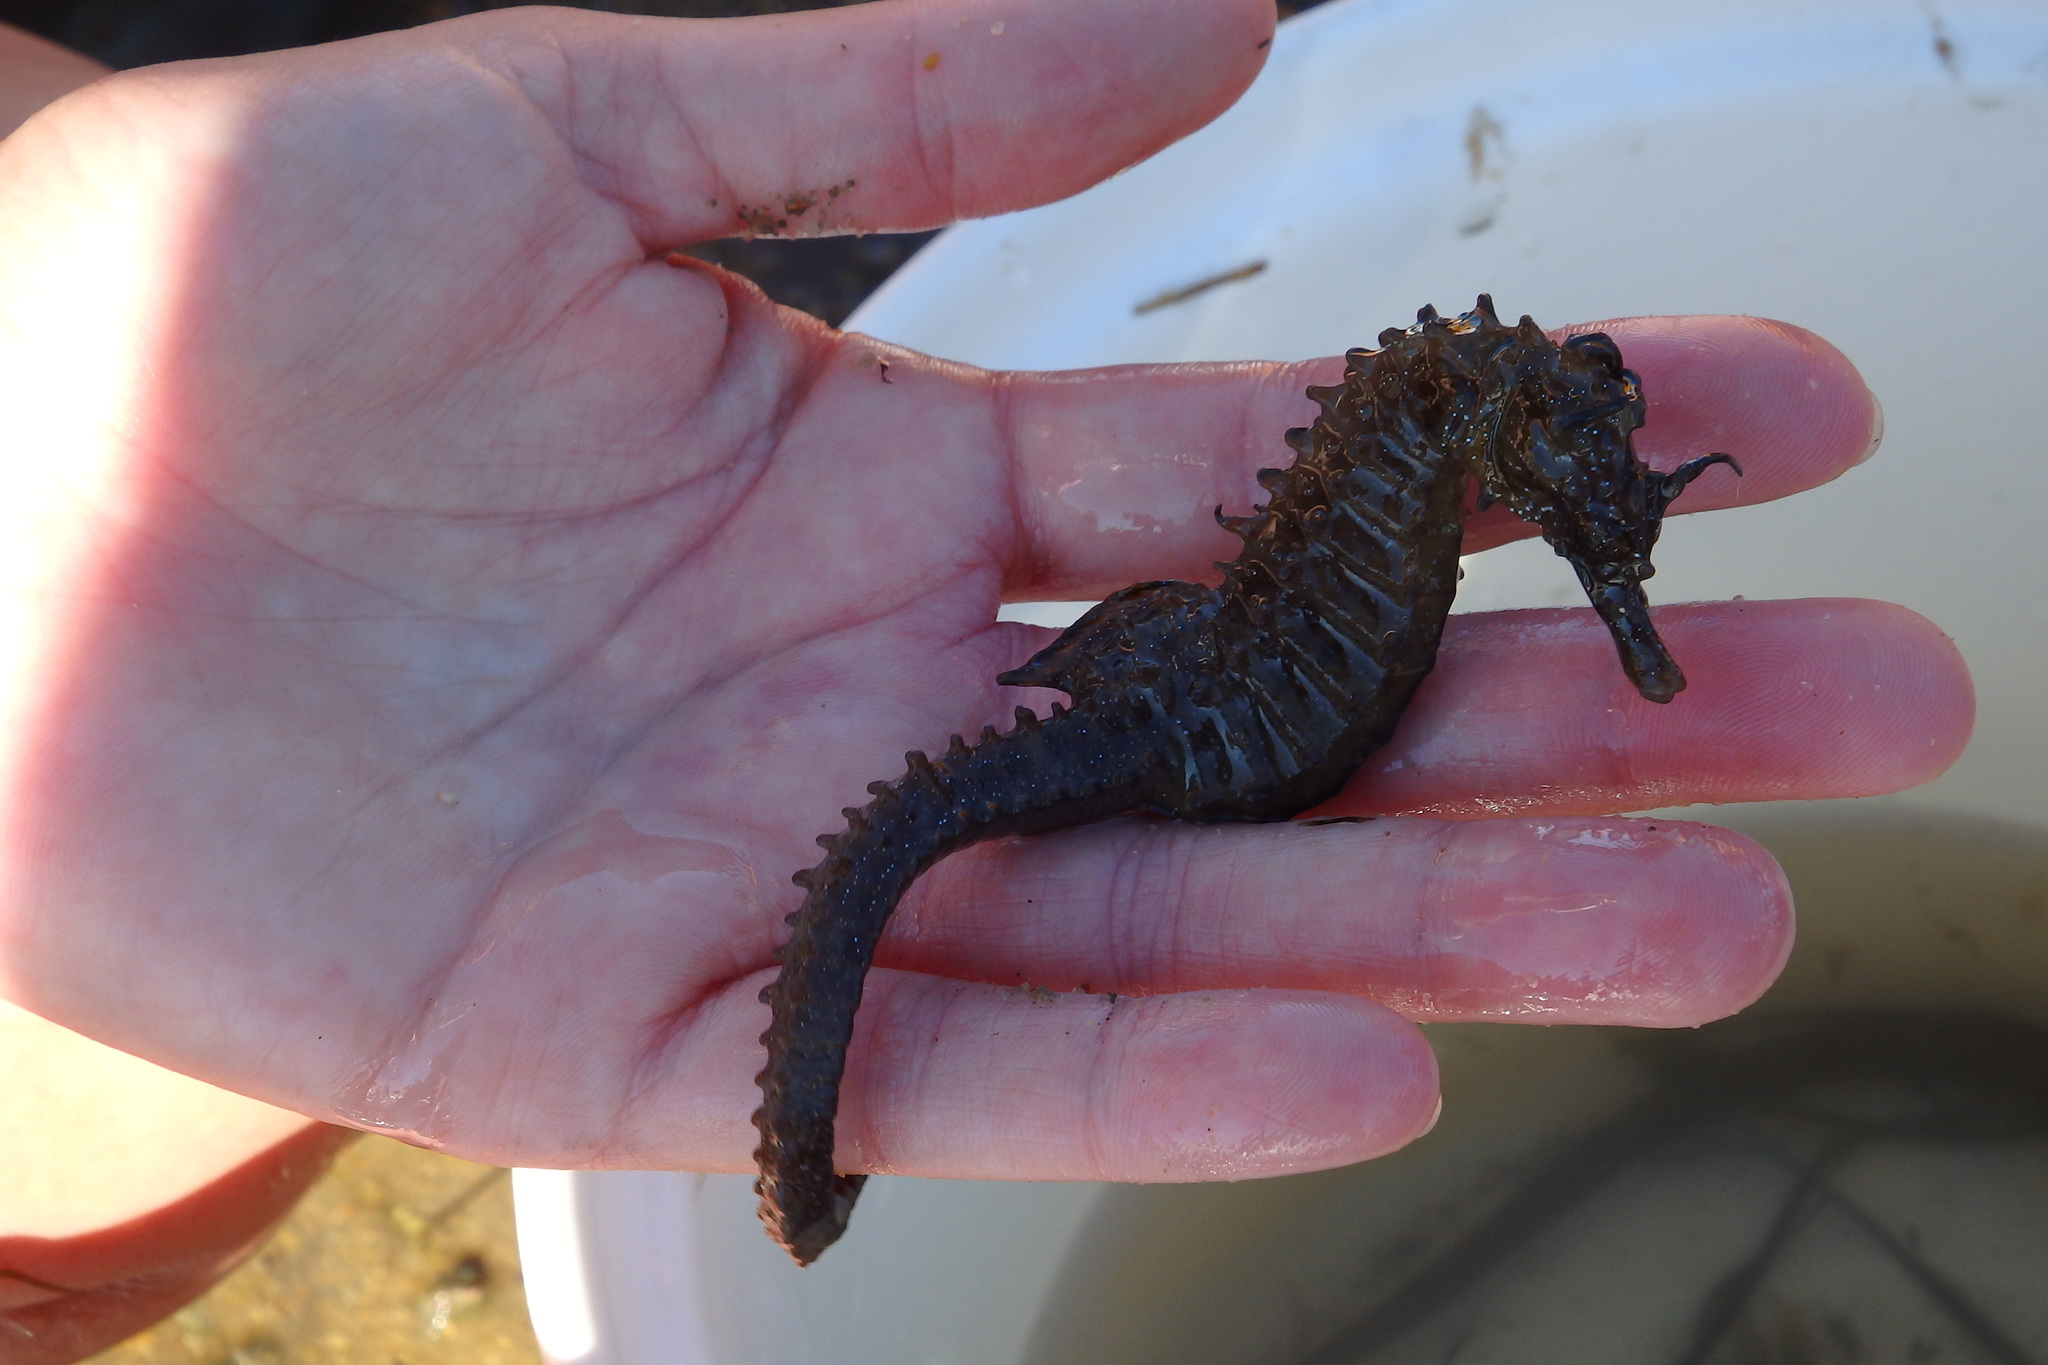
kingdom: Animalia
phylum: Chordata
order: Syngnathiformes
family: Syngnathidae
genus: Hippocampus
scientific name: Hippocampus guttulatus
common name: Long-snouted seahorse
